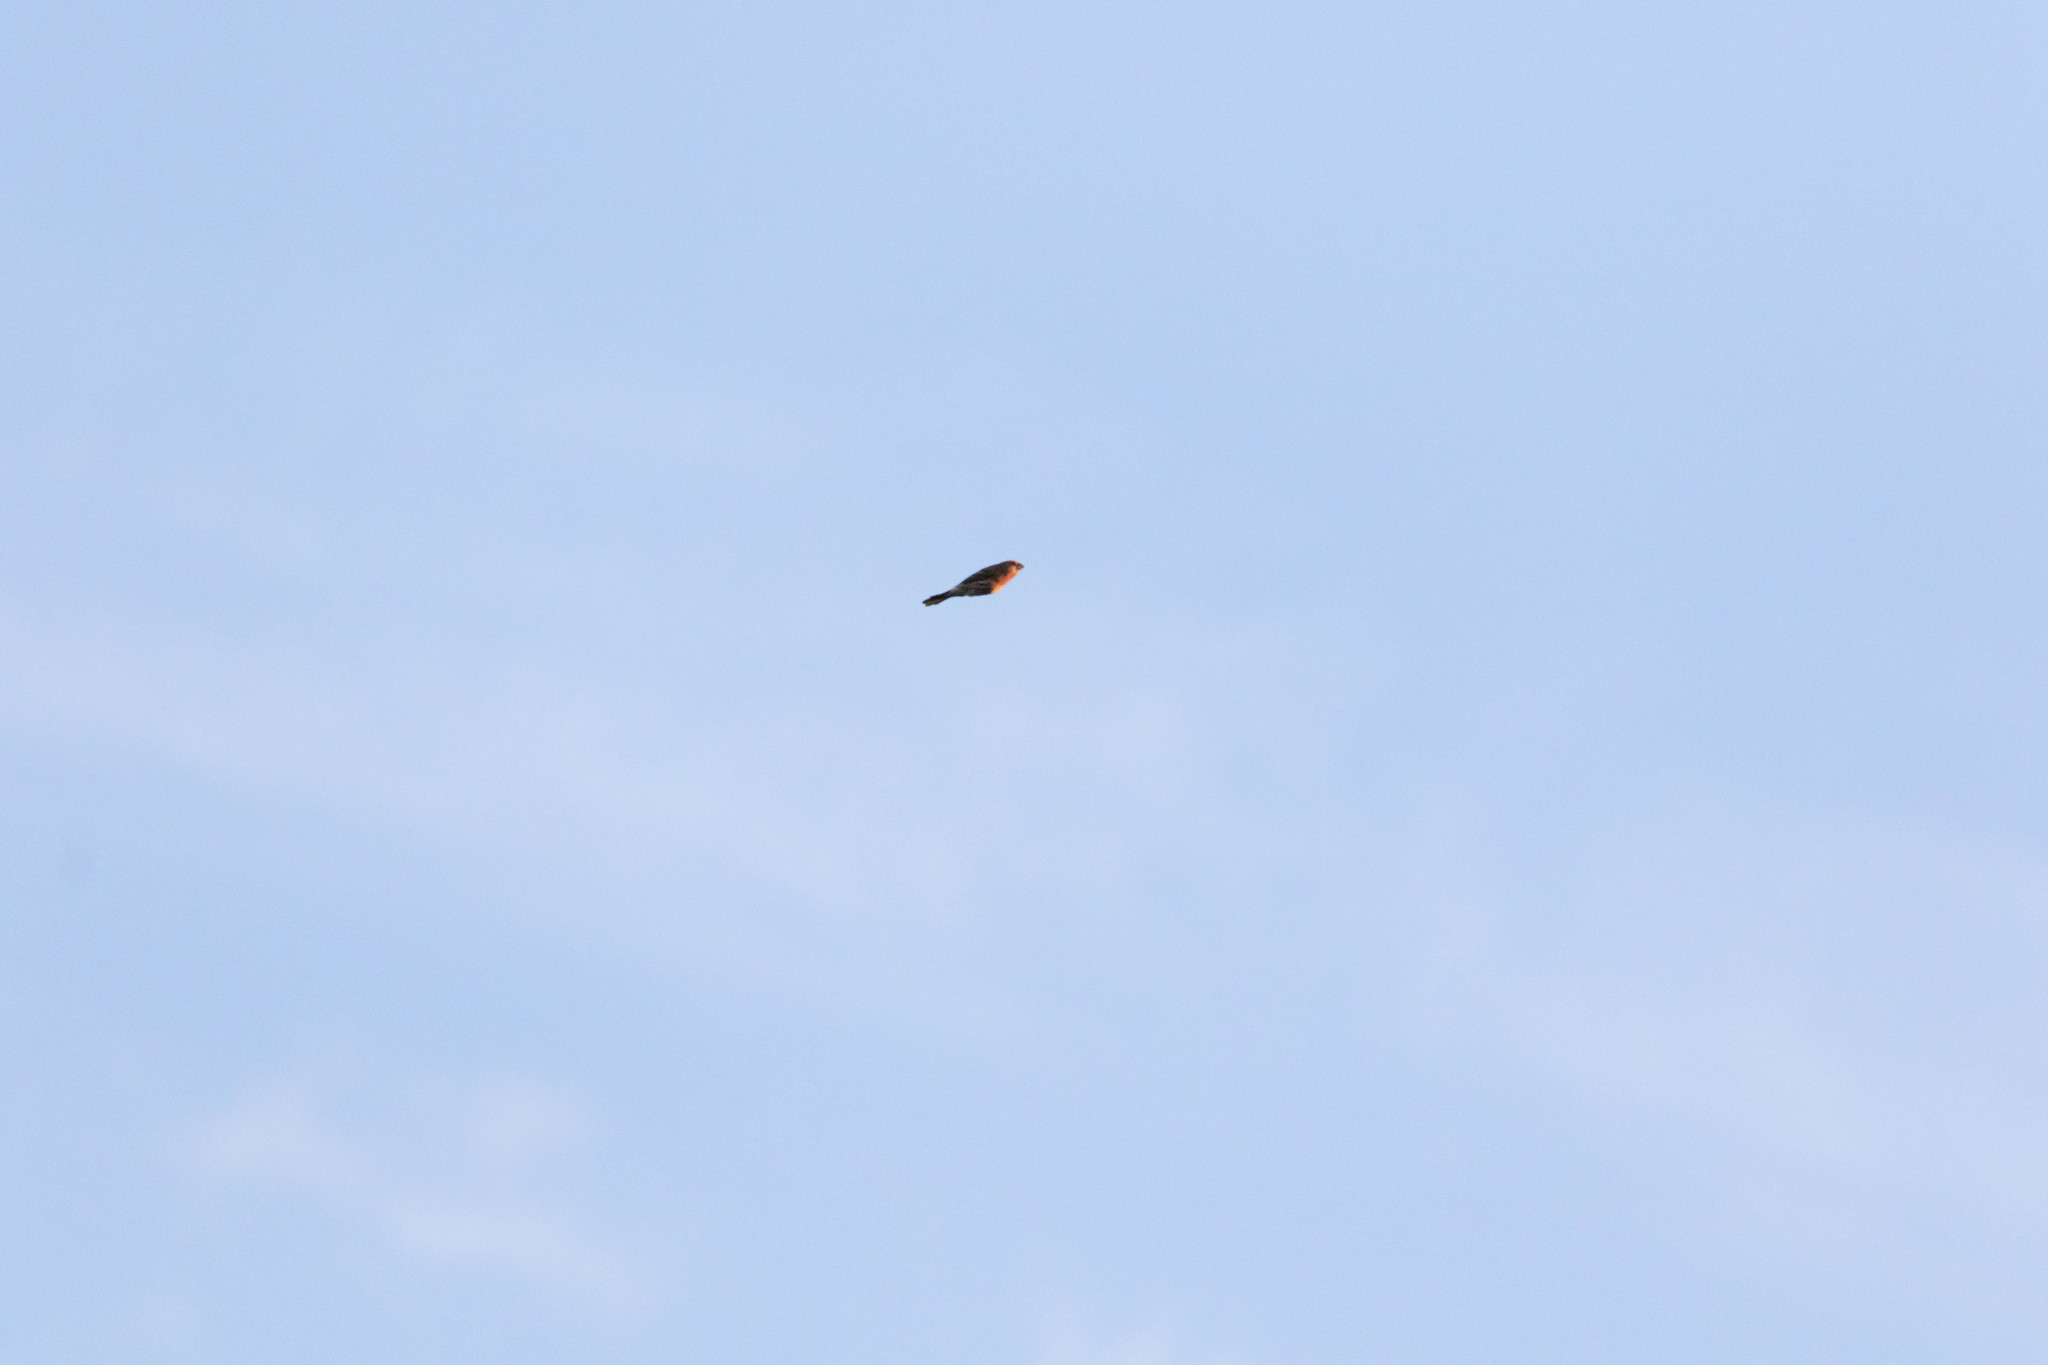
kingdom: Animalia
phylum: Chordata
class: Aves
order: Passeriformes
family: Fringillidae
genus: Haemorhous
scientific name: Haemorhous mexicanus
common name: House finch
